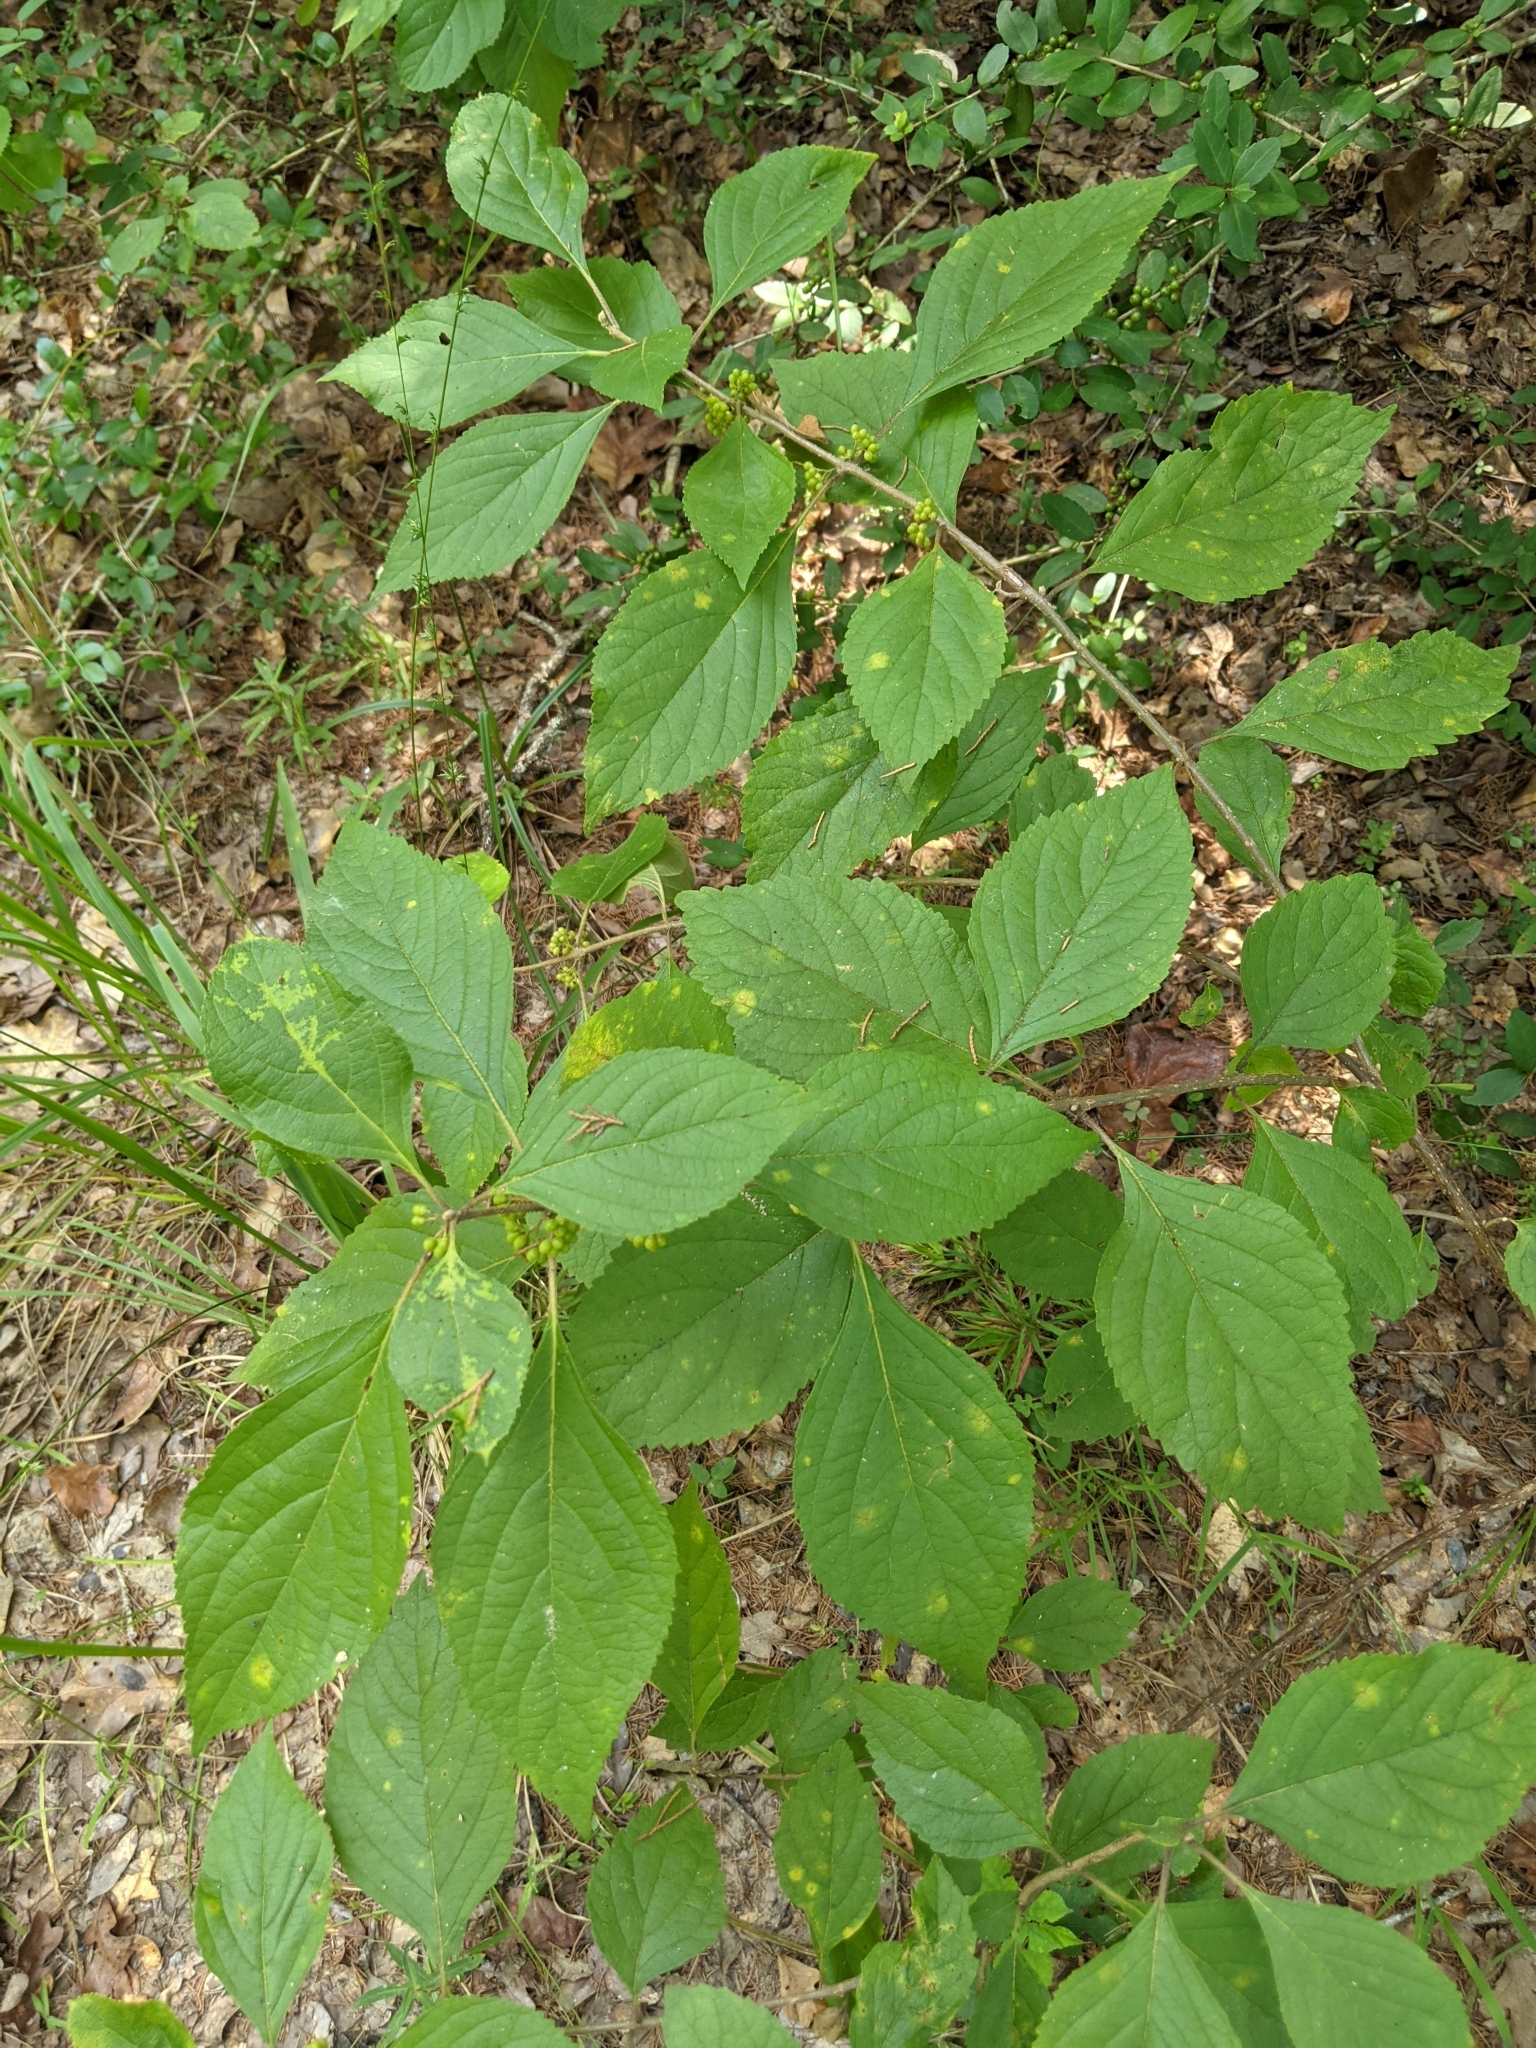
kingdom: Plantae
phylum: Tracheophyta
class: Magnoliopsida
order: Lamiales
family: Lamiaceae
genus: Callicarpa
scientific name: Callicarpa americana
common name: American beautyberry
